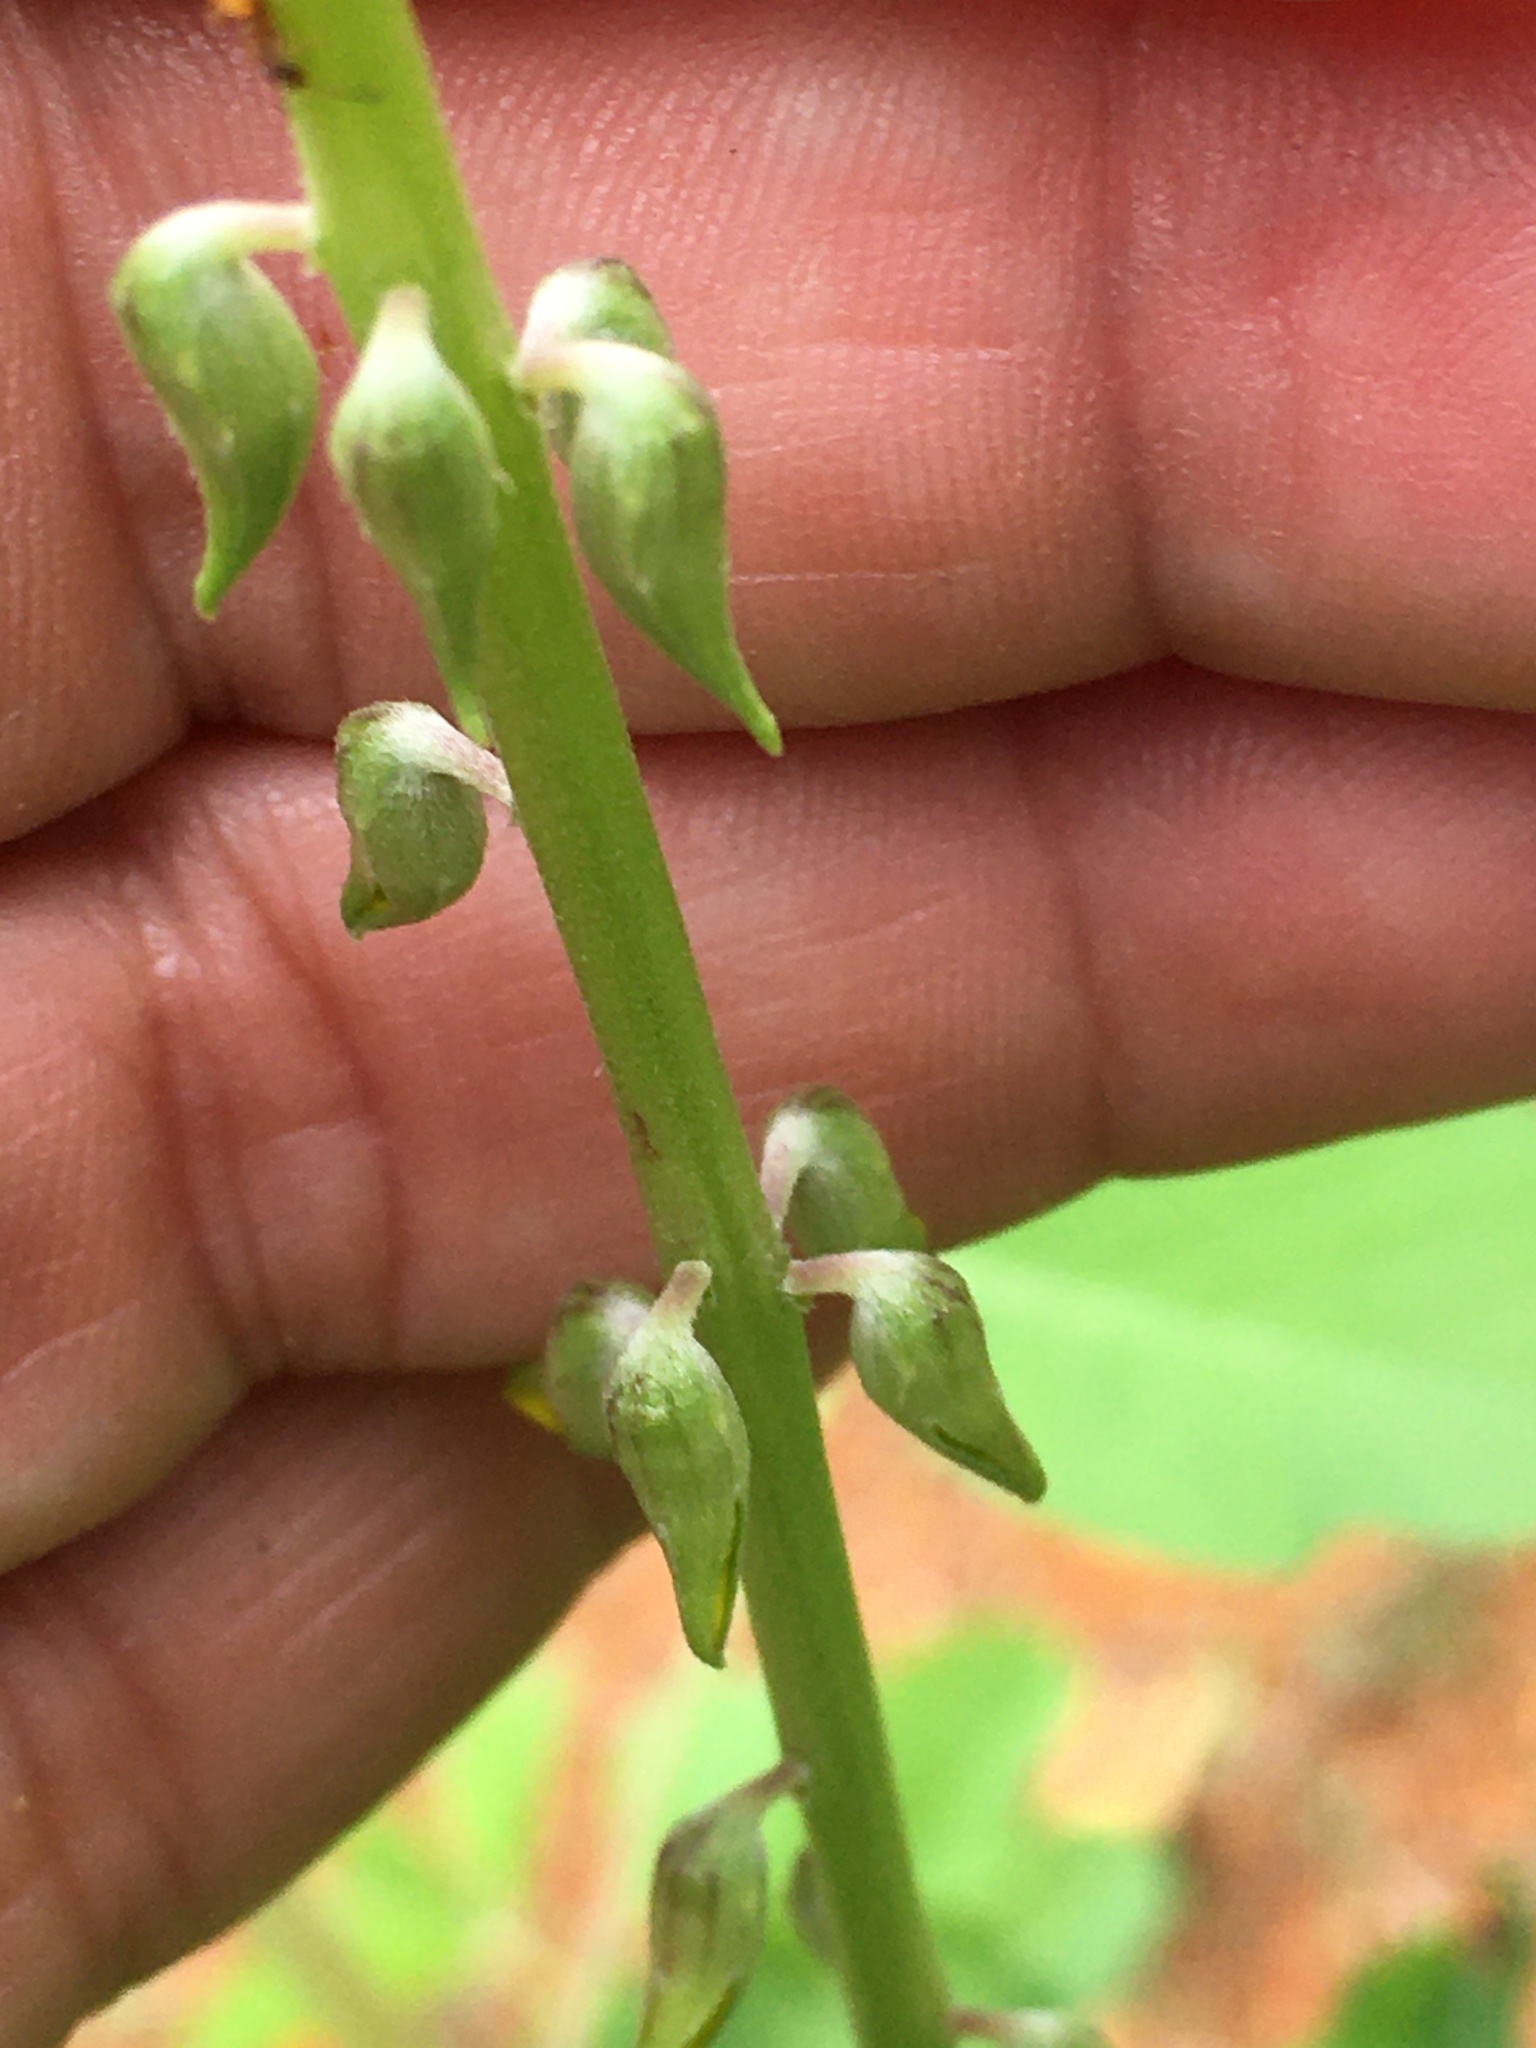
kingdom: Plantae
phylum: Tracheophyta
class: Magnoliopsida
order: Fabales
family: Fabaceae
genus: Crotalaria
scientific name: Crotalaria pallida
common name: Smooth rattlebox
